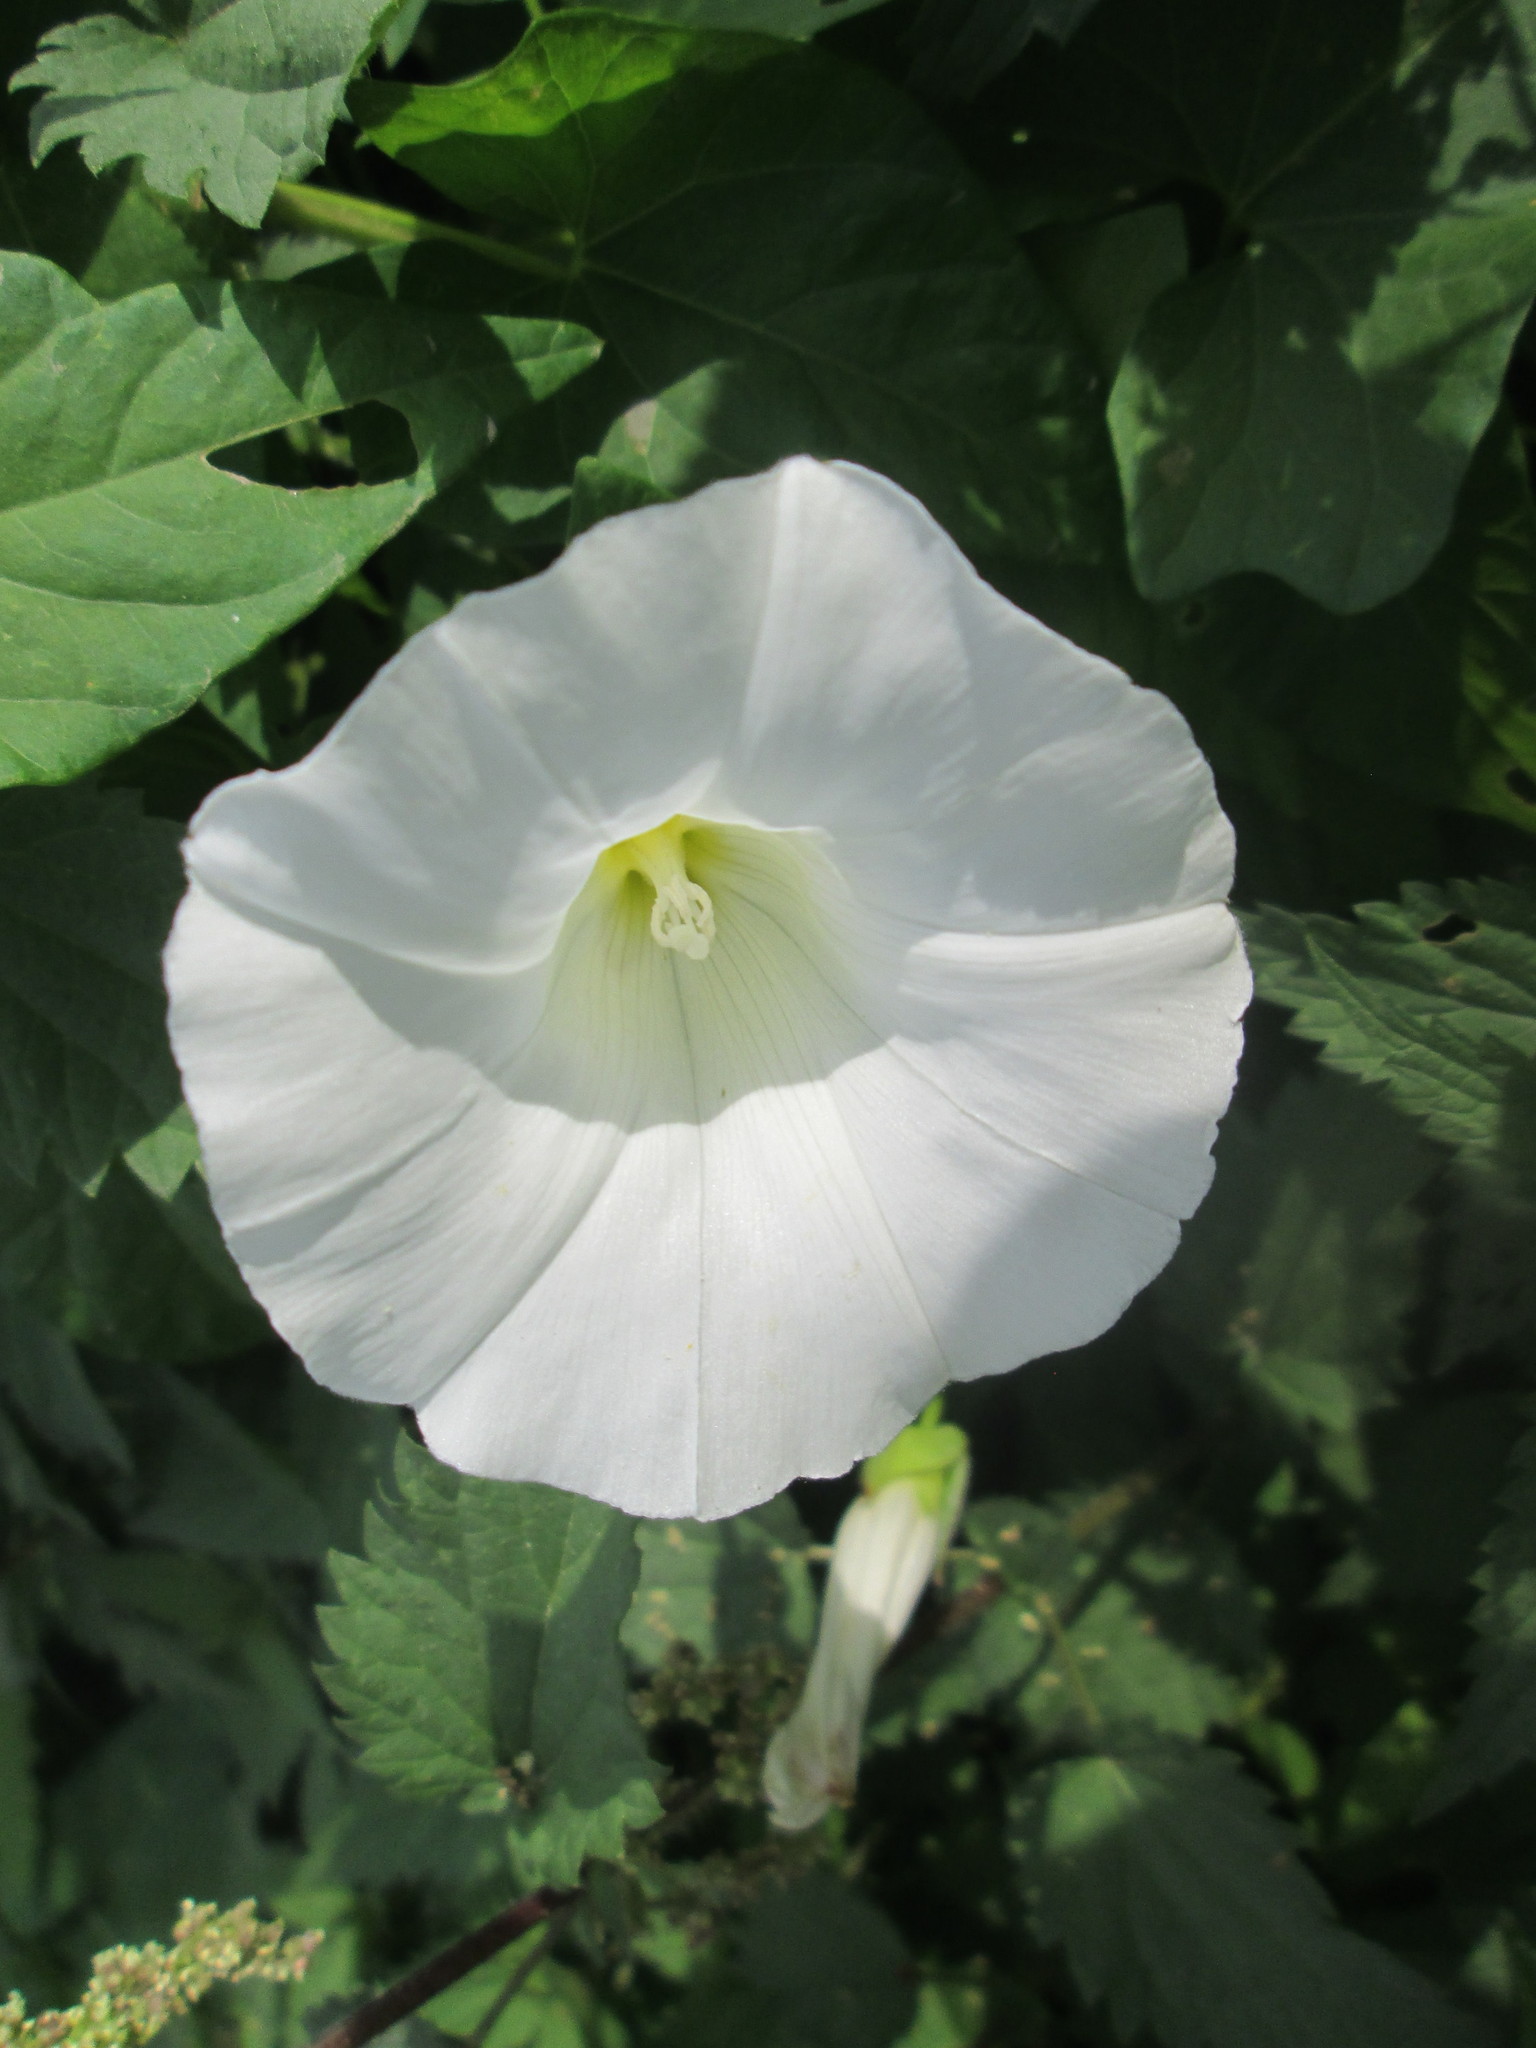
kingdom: Plantae
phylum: Tracheophyta
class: Magnoliopsida
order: Solanales
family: Convolvulaceae
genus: Calystegia
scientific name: Calystegia sepium
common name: Hedge bindweed
